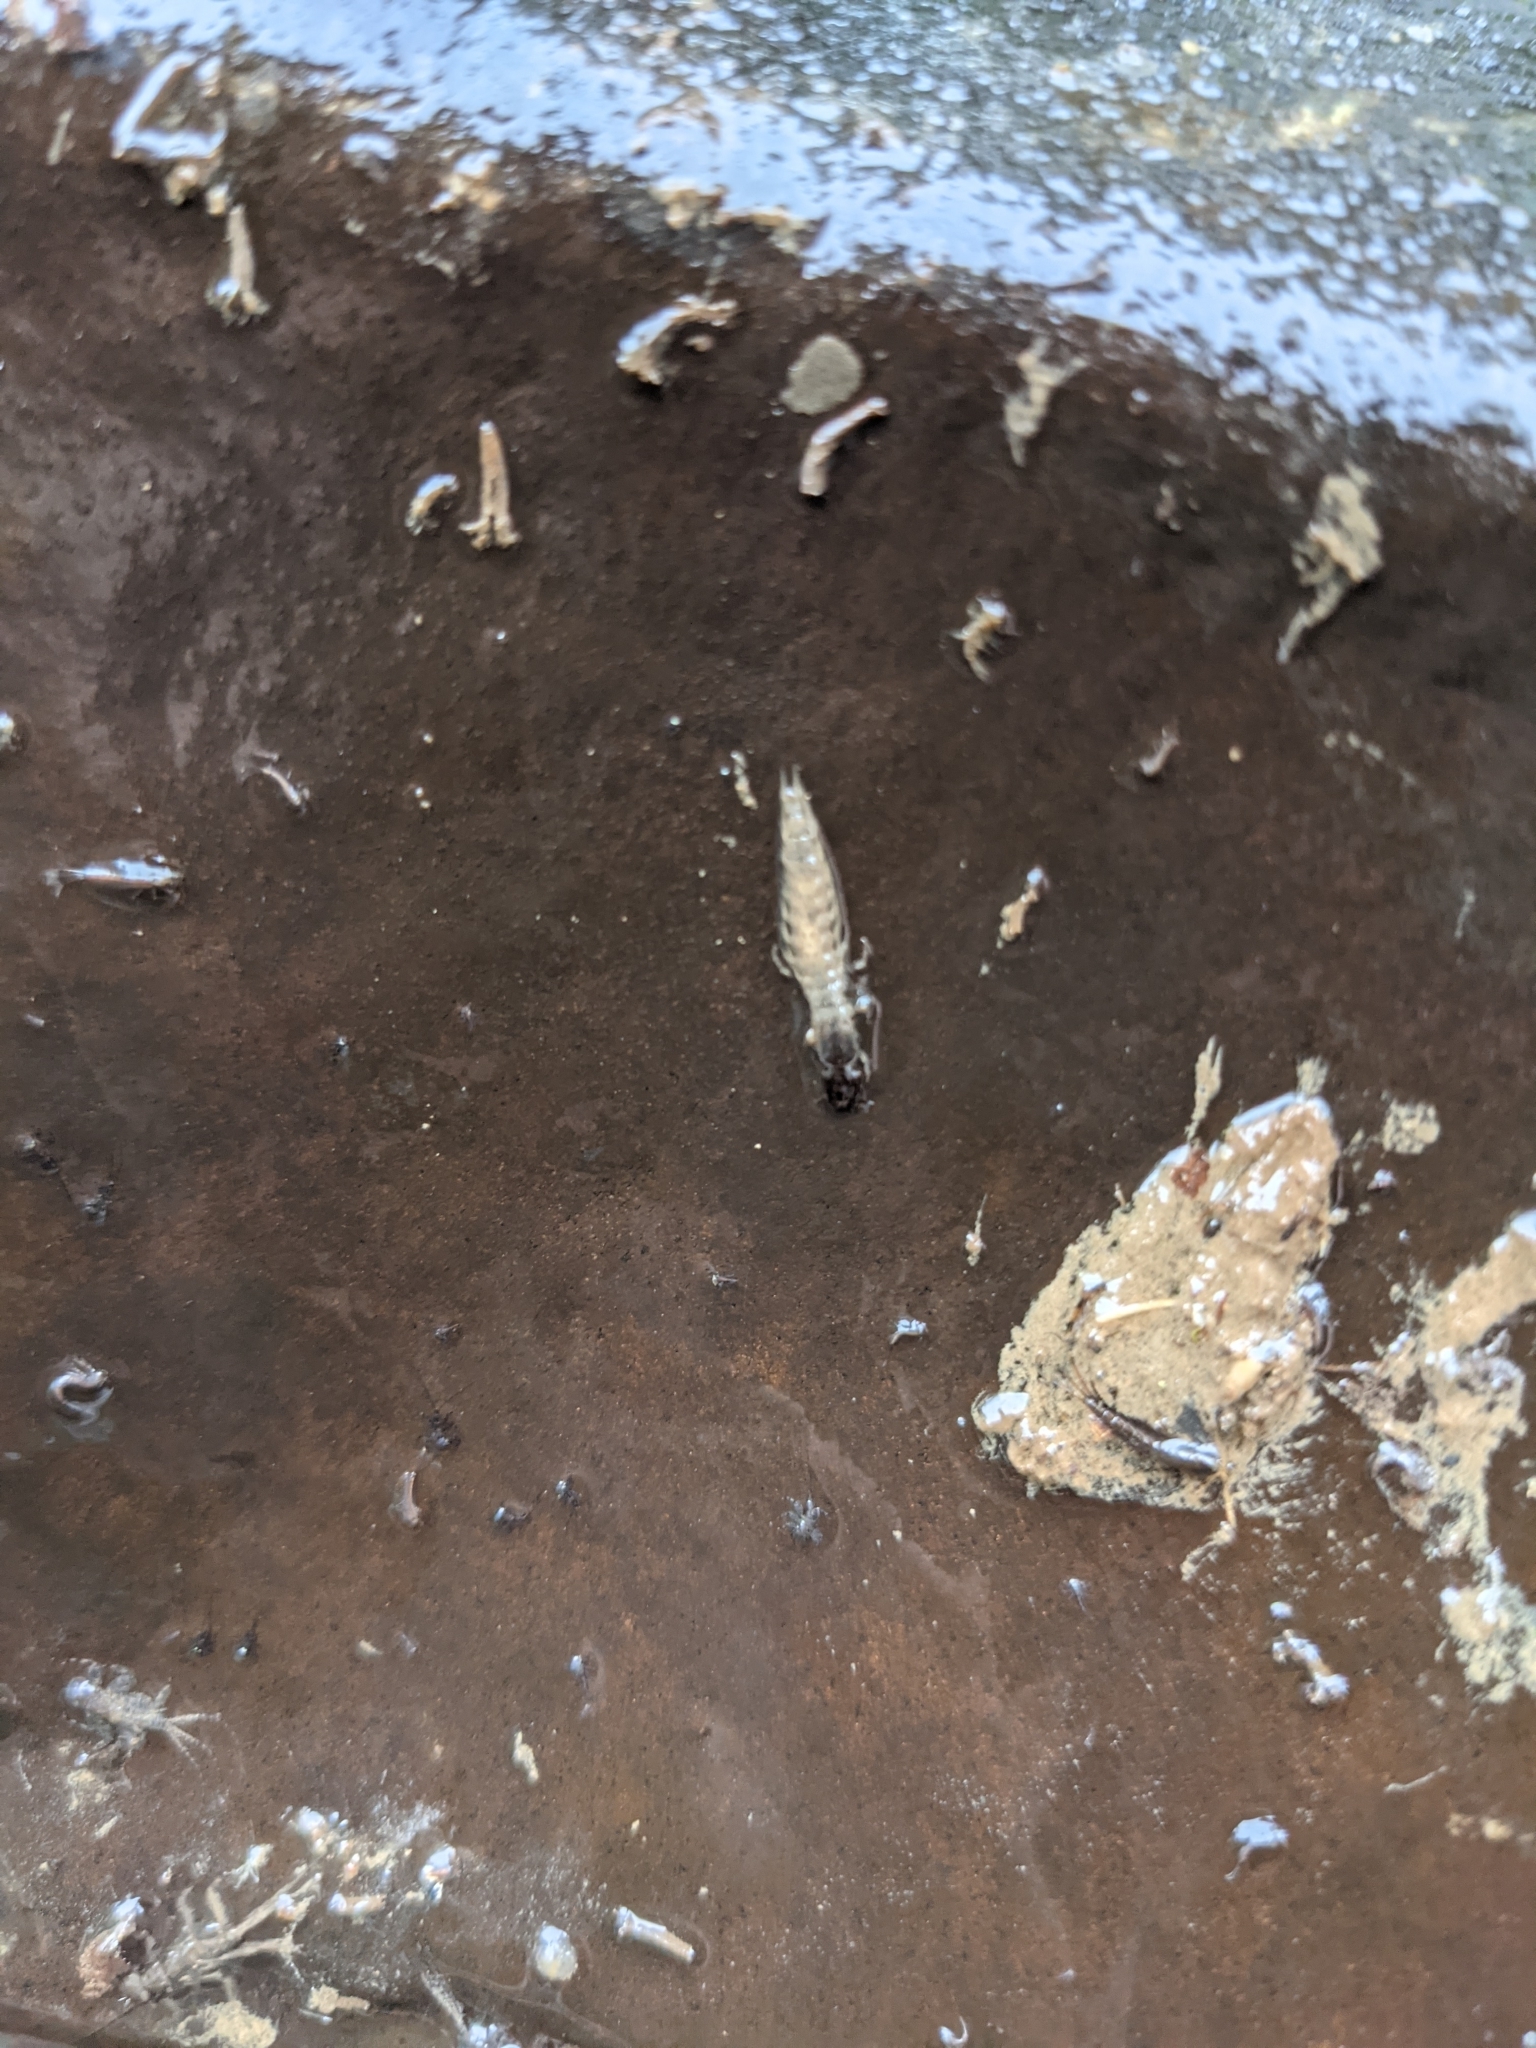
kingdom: Animalia
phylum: Arthropoda
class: Insecta
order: Megaloptera
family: Corydalidae
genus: Corydalus
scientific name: Corydalus cornutus
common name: Dobsonfly
